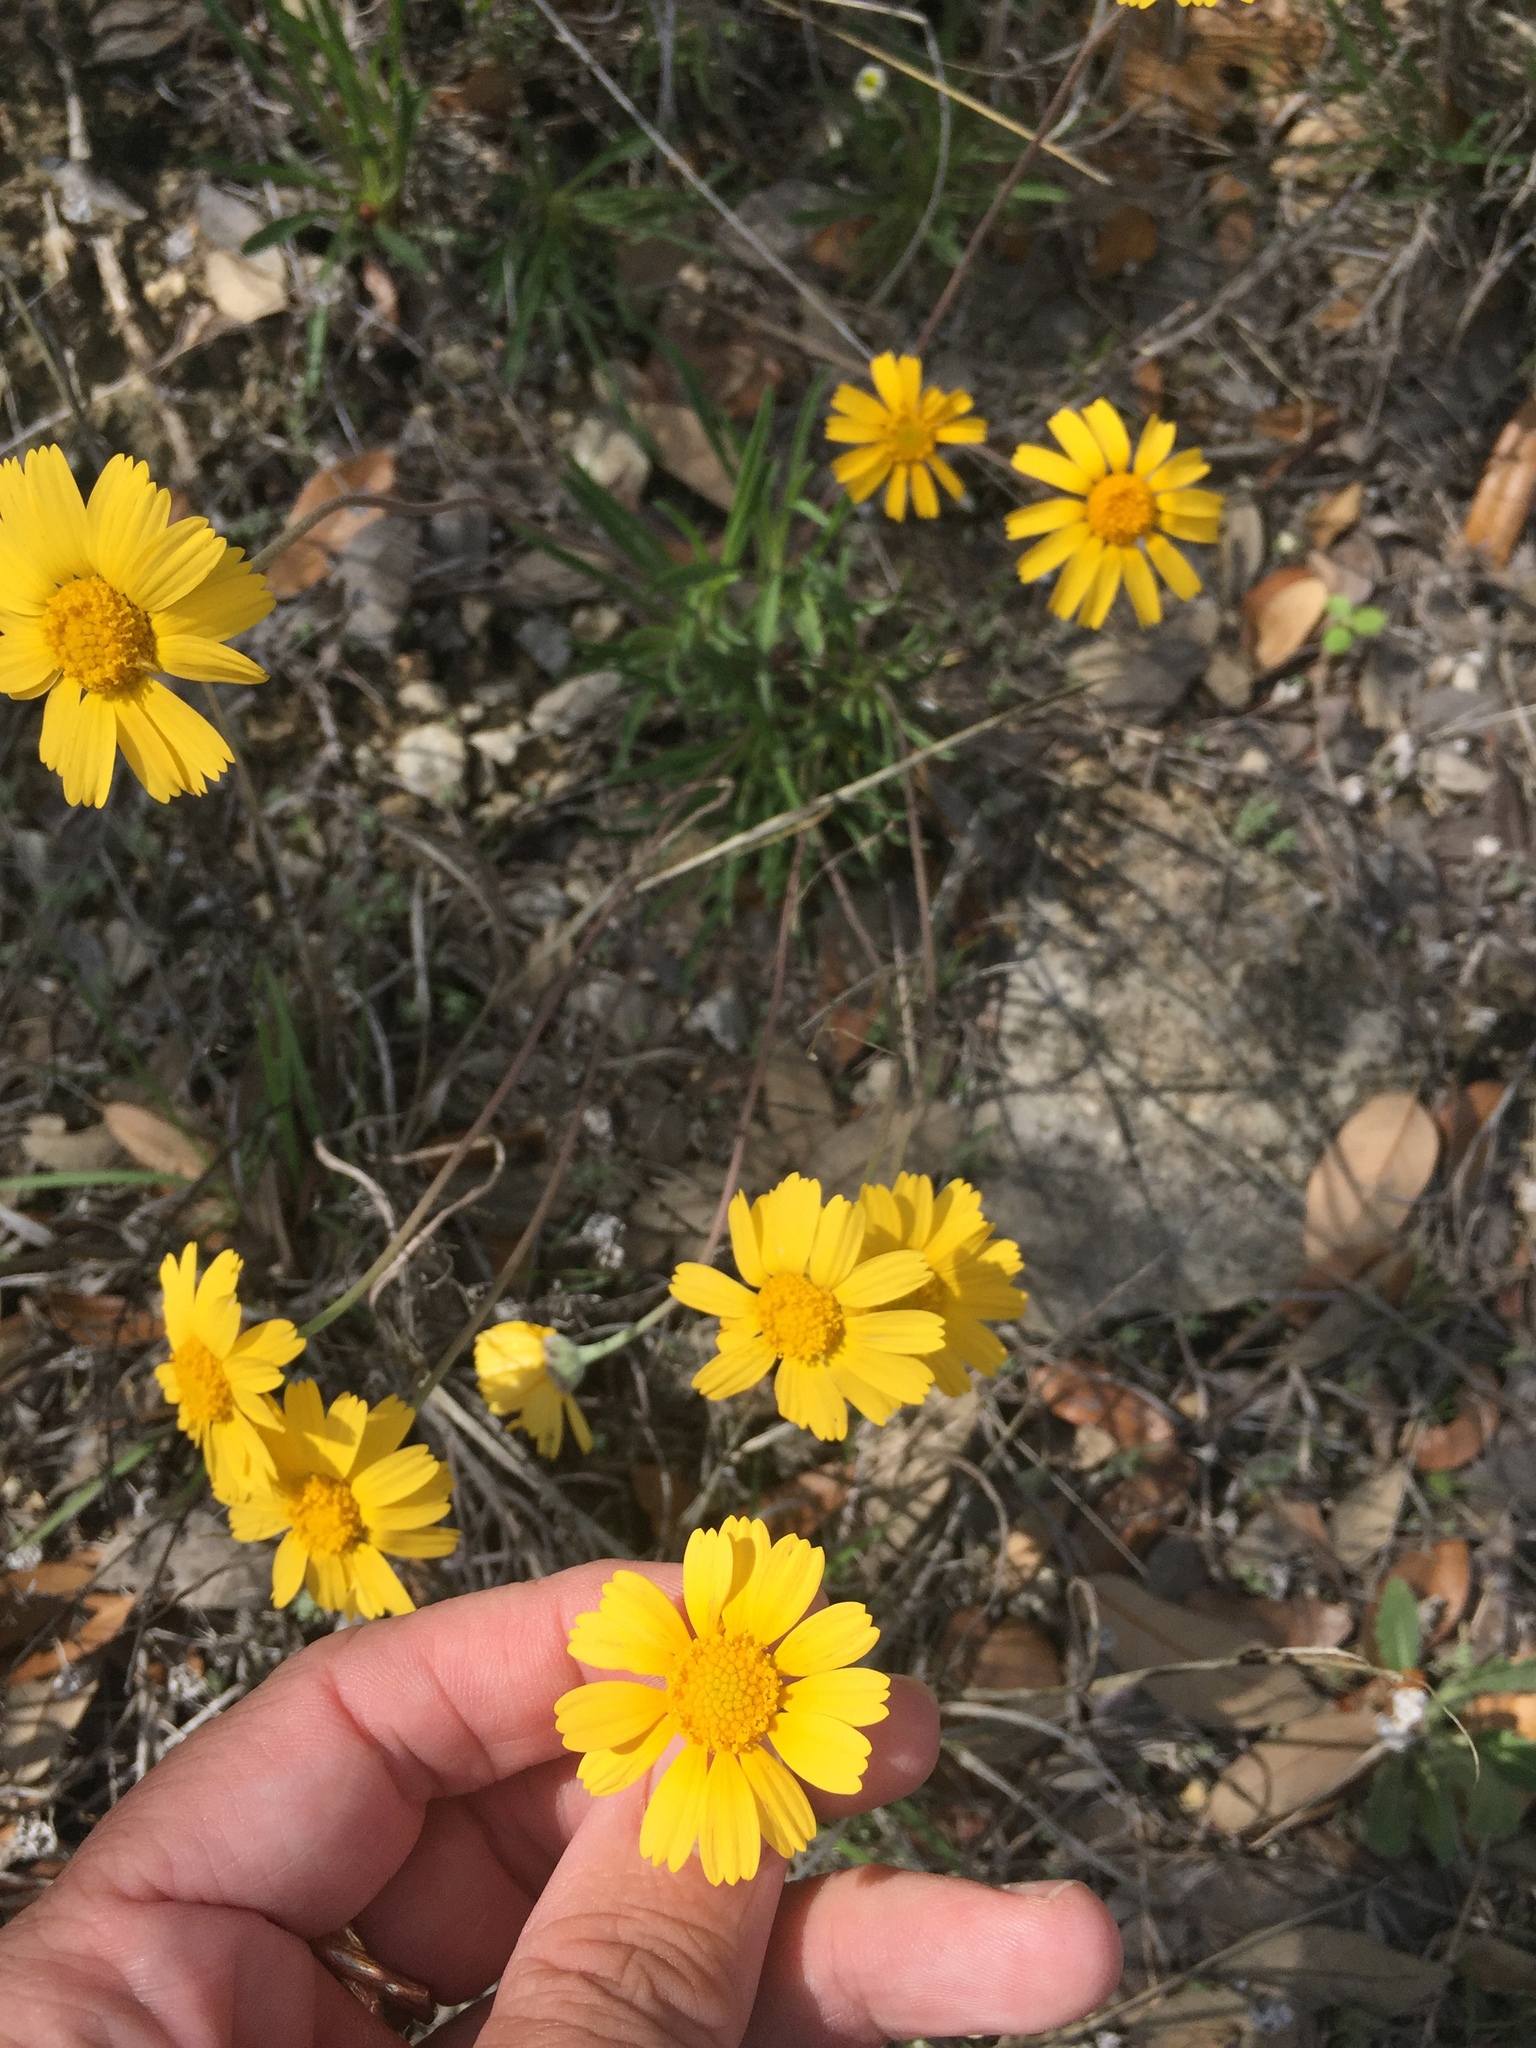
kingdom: Plantae
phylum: Tracheophyta
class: Magnoliopsida
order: Asterales
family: Asteraceae
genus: Tetraneuris
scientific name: Tetraneuris scaposa
